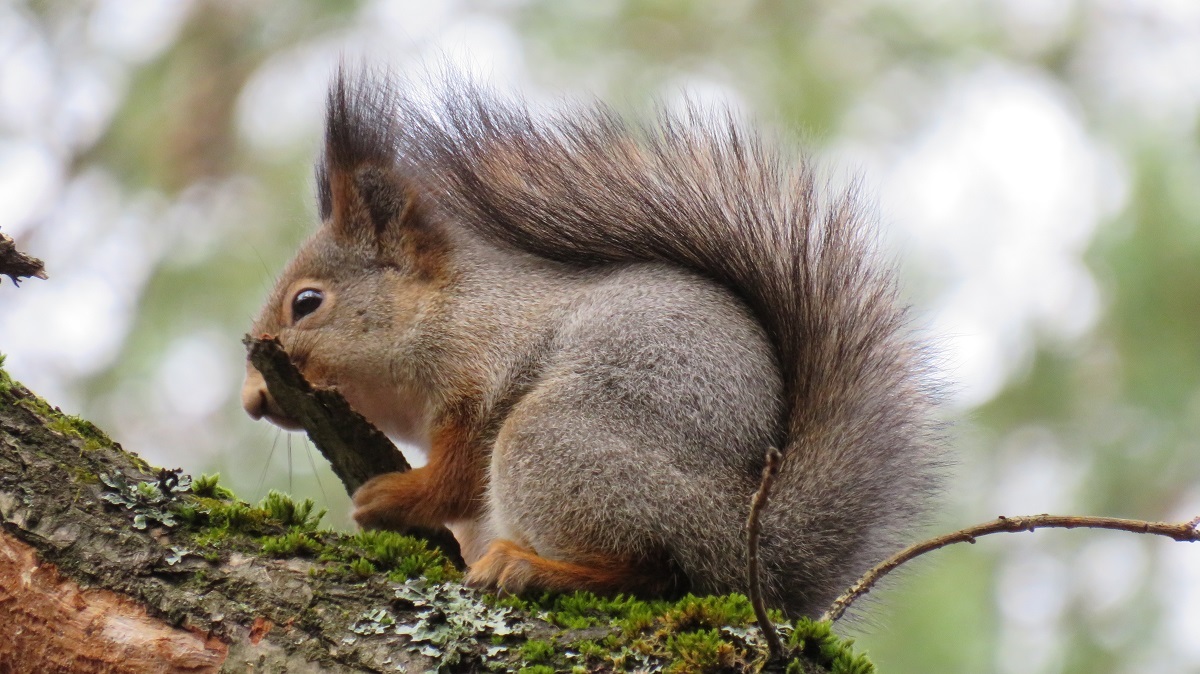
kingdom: Animalia
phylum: Chordata
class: Mammalia
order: Rodentia
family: Sciuridae
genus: Sciurus
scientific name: Sciurus vulgaris
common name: Eurasian red squirrel
